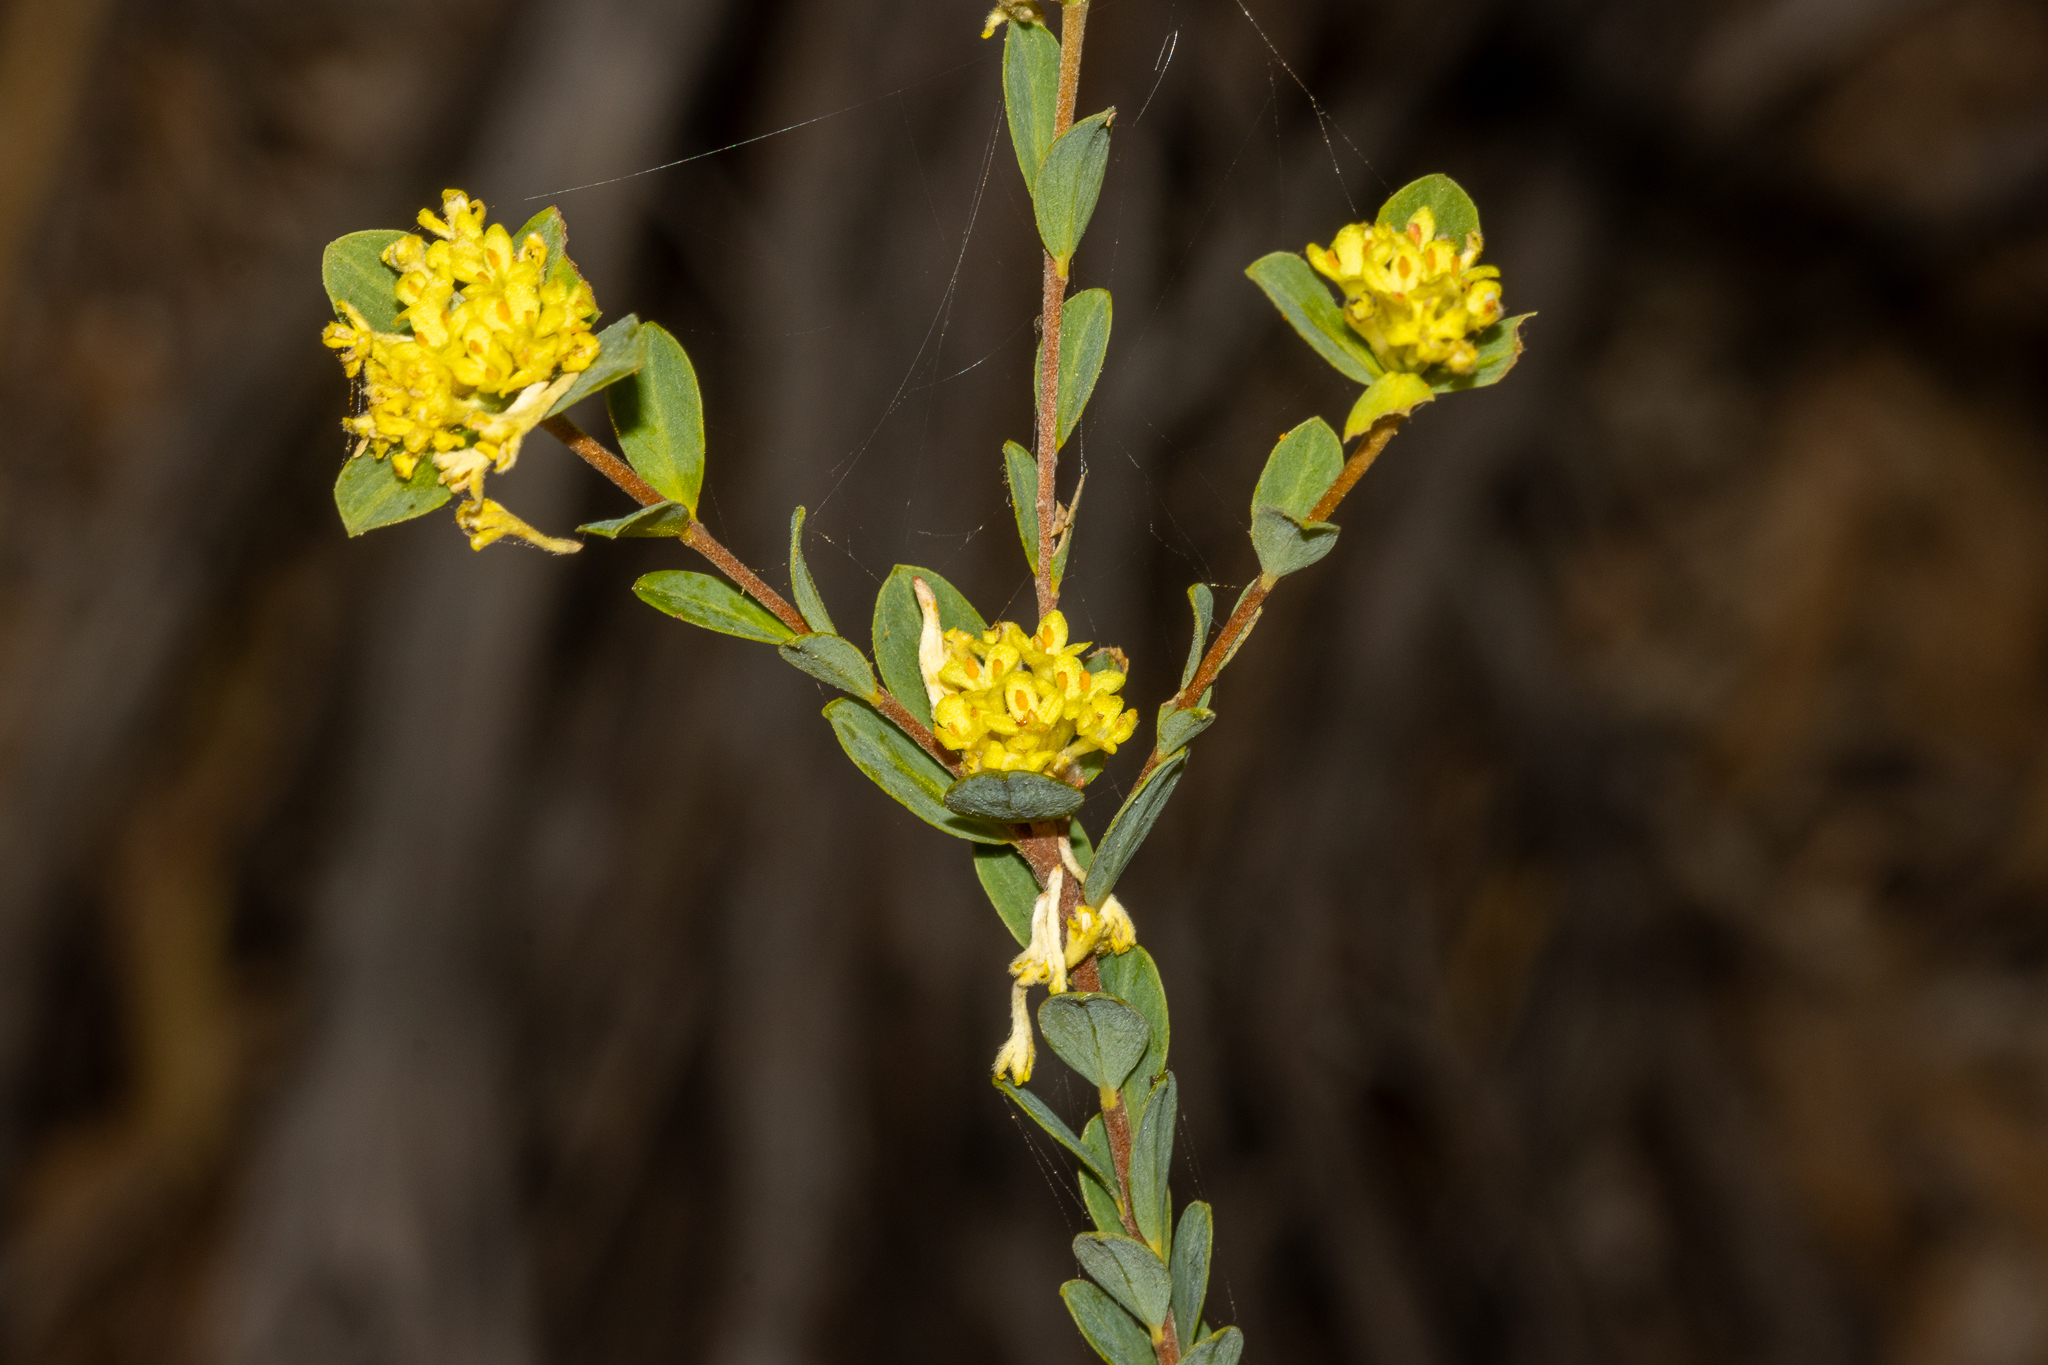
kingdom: Plantae
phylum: Tracheophyta
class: Magnoliopsida
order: Malvales
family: Thymelaeaceae
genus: Pimelea
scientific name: Pimelea flava
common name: Yellow riceflower
